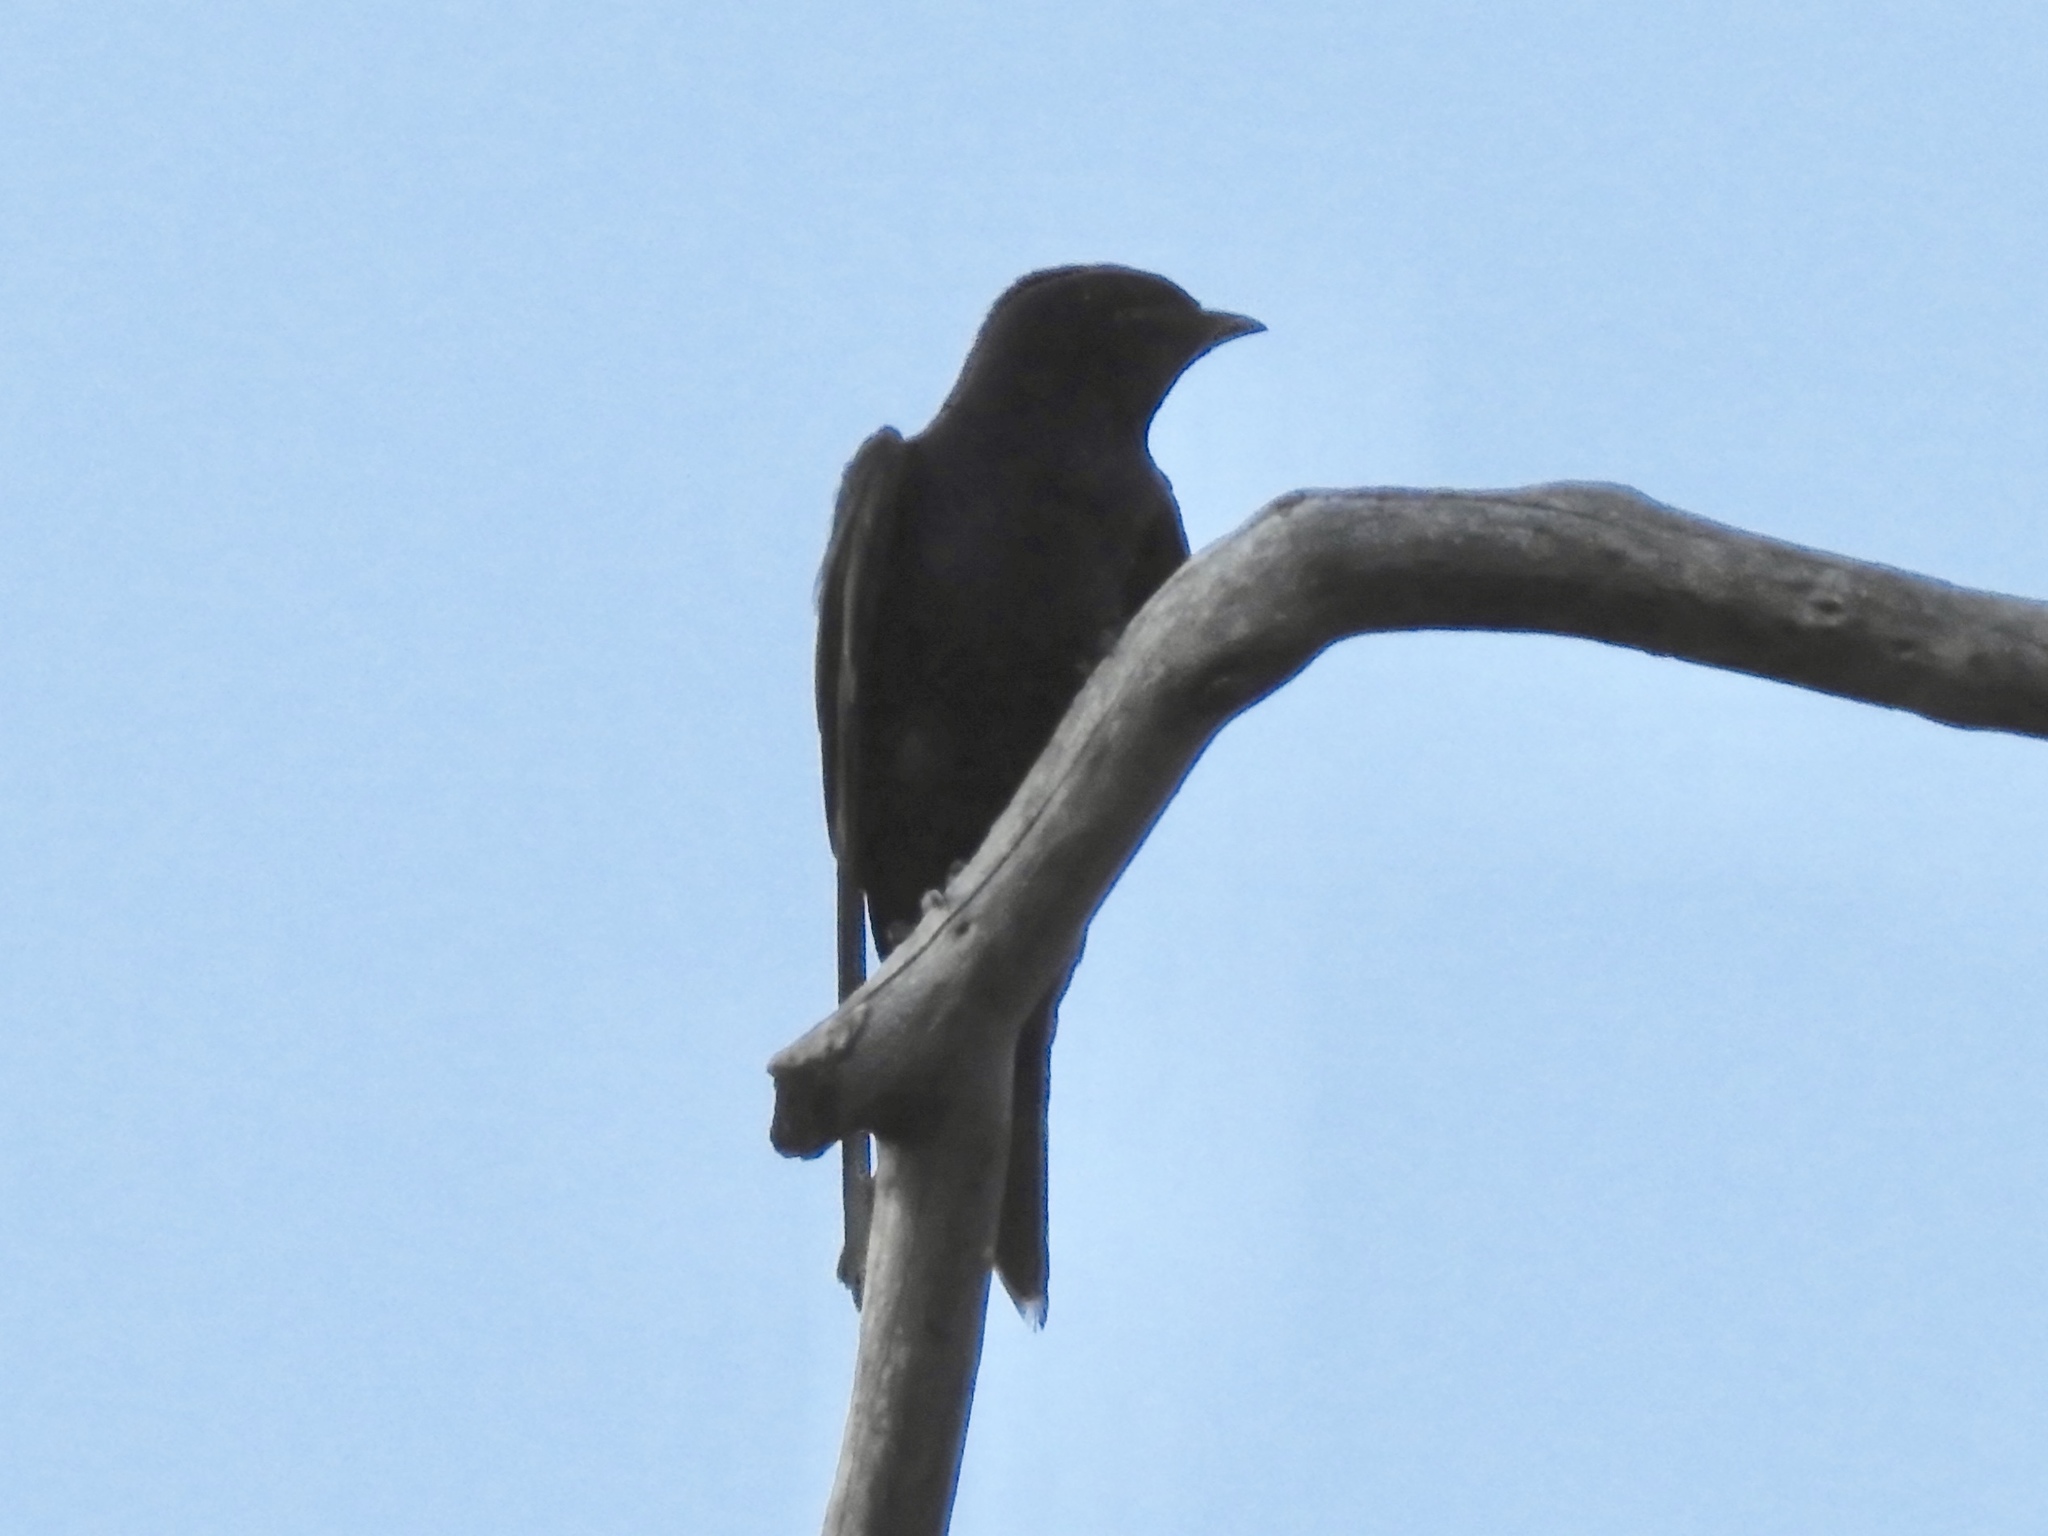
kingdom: Animalia
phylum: Chordata
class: Aves
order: Passeriformes
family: Hirundinidae
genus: Progne
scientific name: Progne subis
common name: Purple martin
